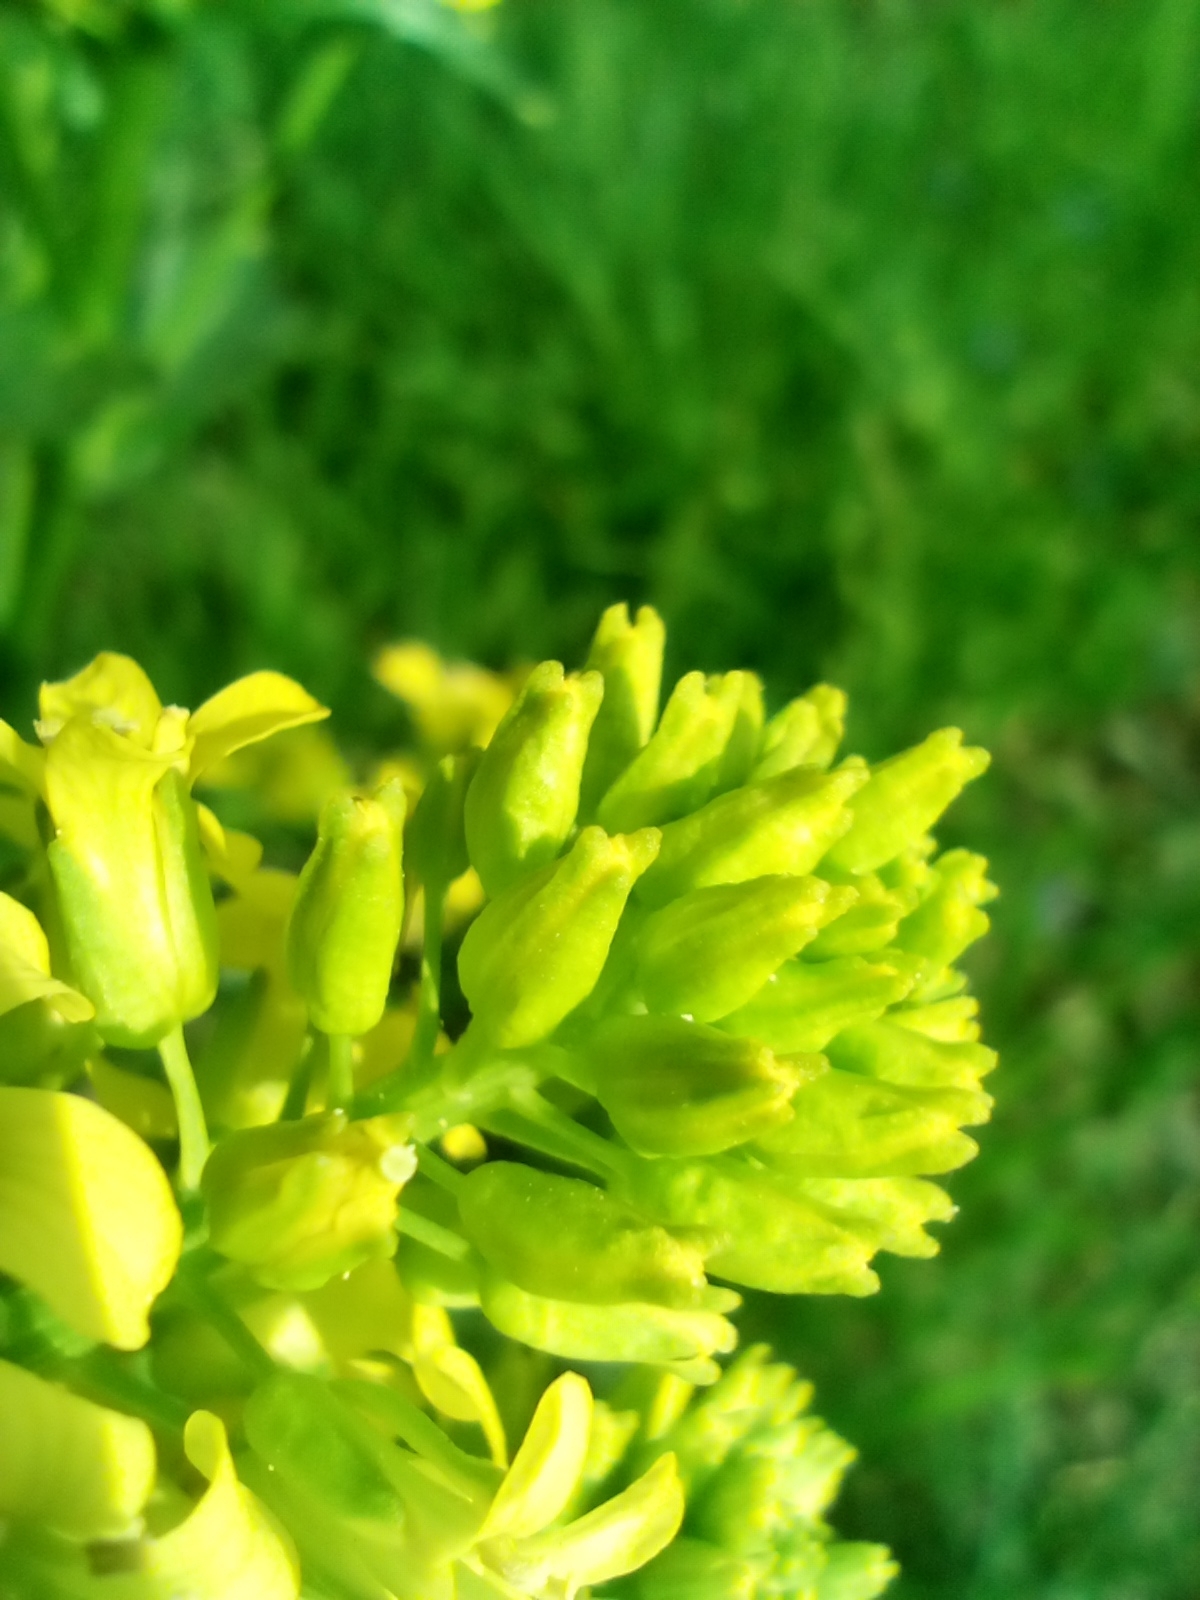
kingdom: Plantae
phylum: Tracheophyta
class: Magnoliopsida
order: Brassicales
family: Brassicaceae
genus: Barbarea
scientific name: Barbarea vulgaris
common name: Cressy-greens
